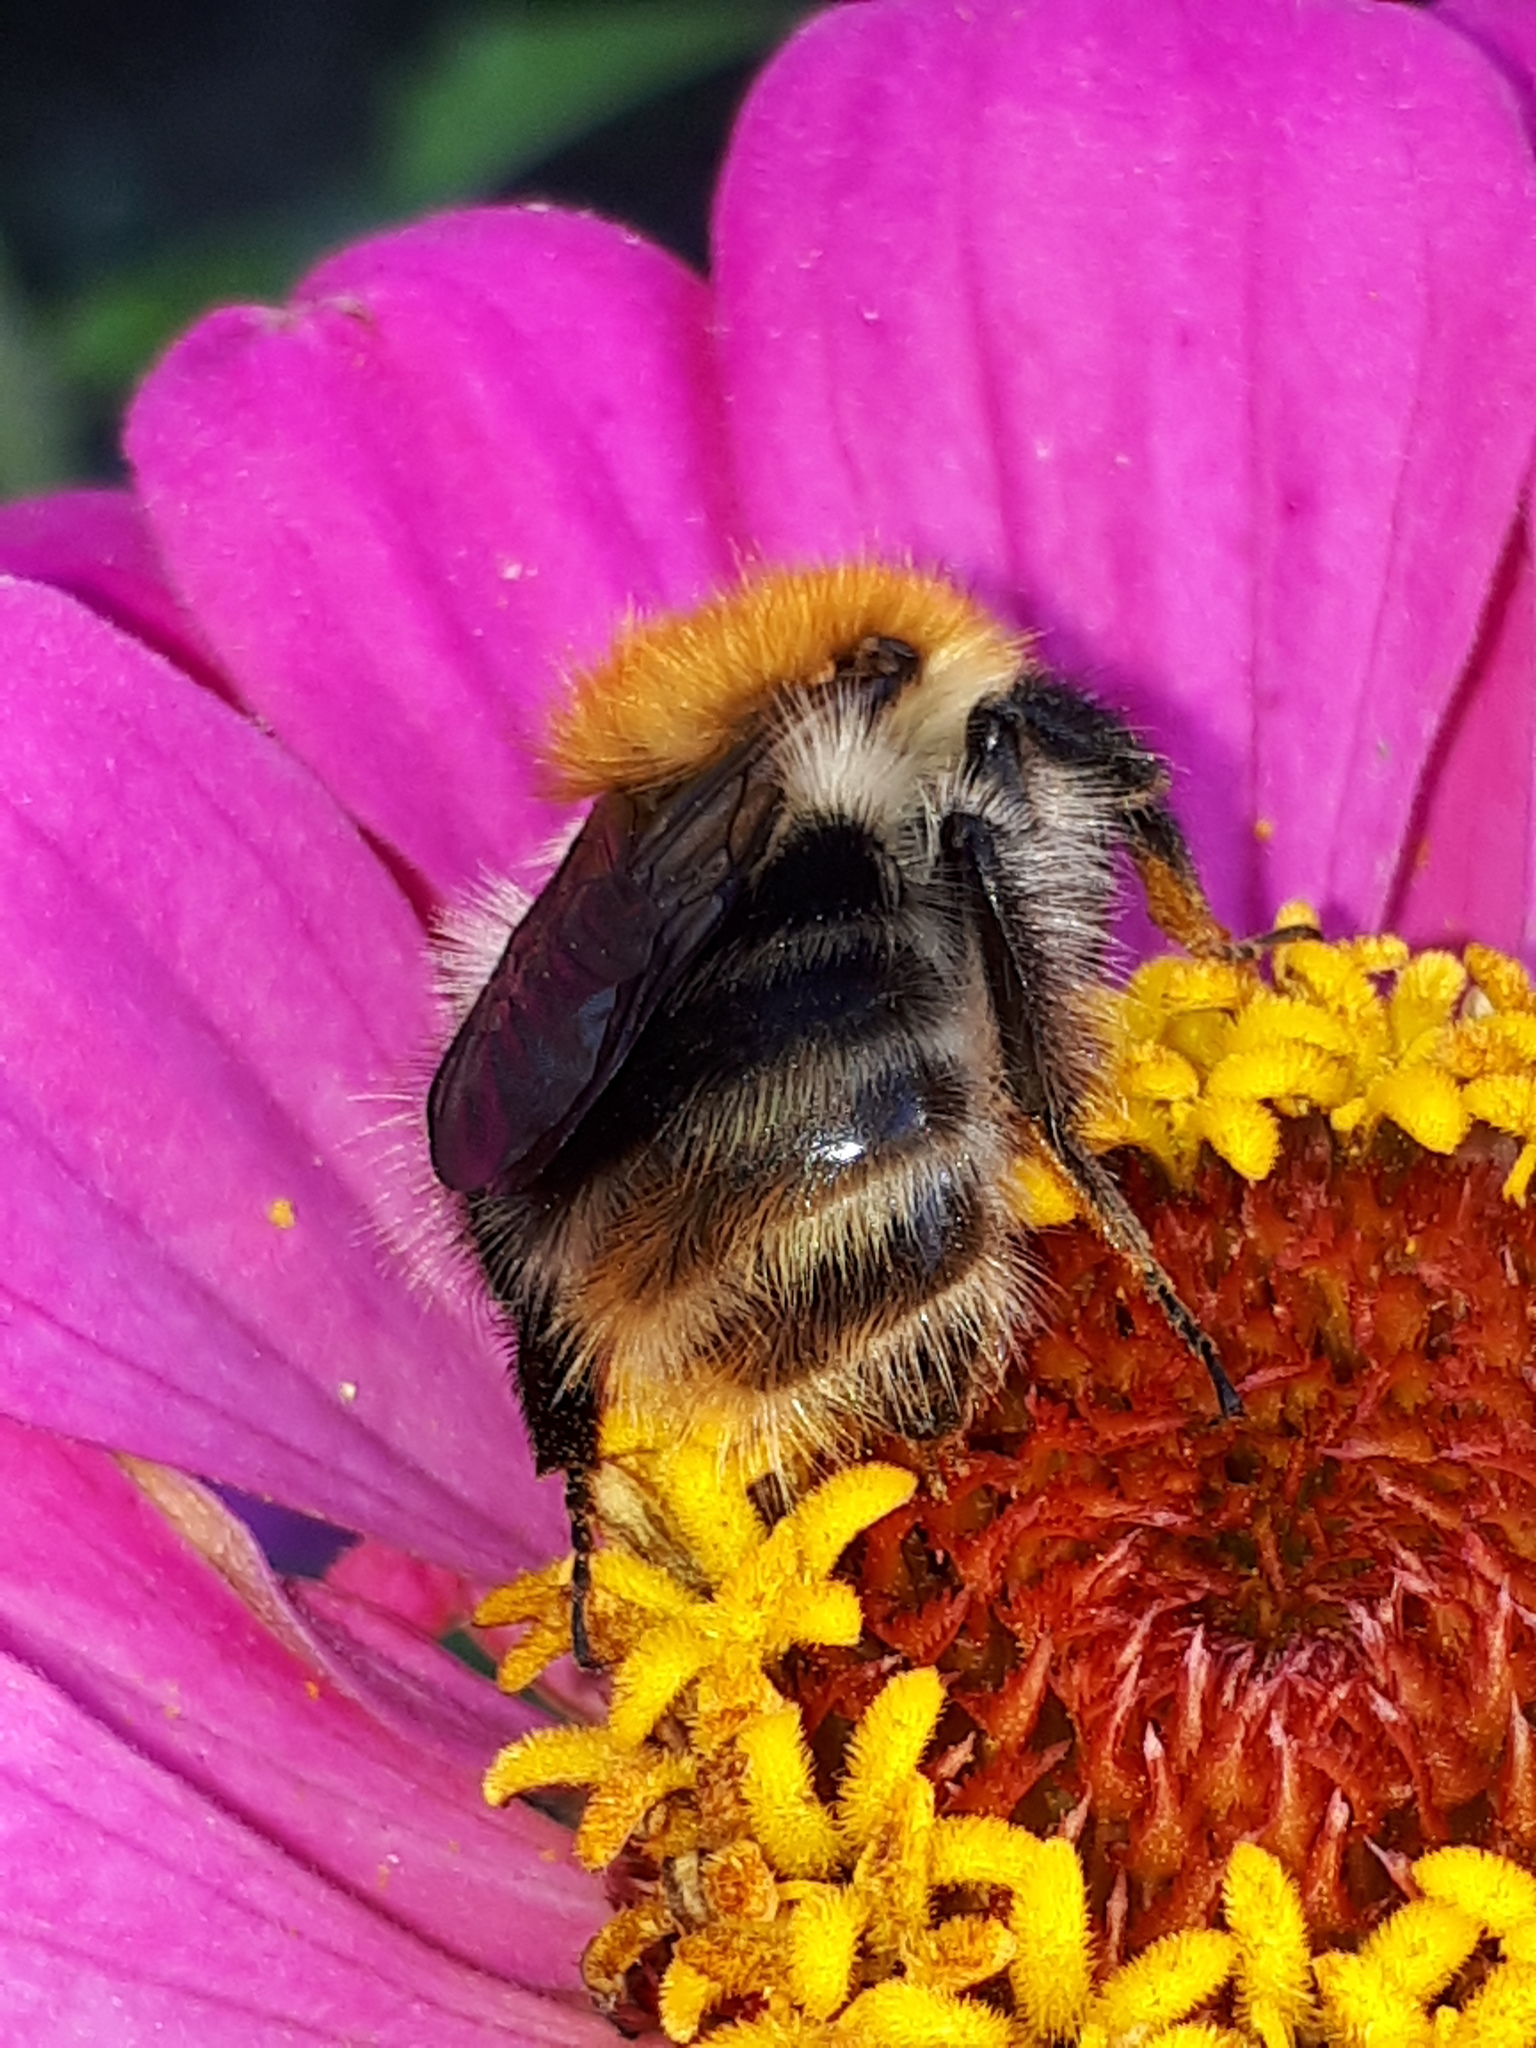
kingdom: Animalia
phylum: Arthropoda
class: Insecta
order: Hymenoptera
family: Apidae
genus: Bombus
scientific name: Bombus pascuorum
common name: Common carder bee
